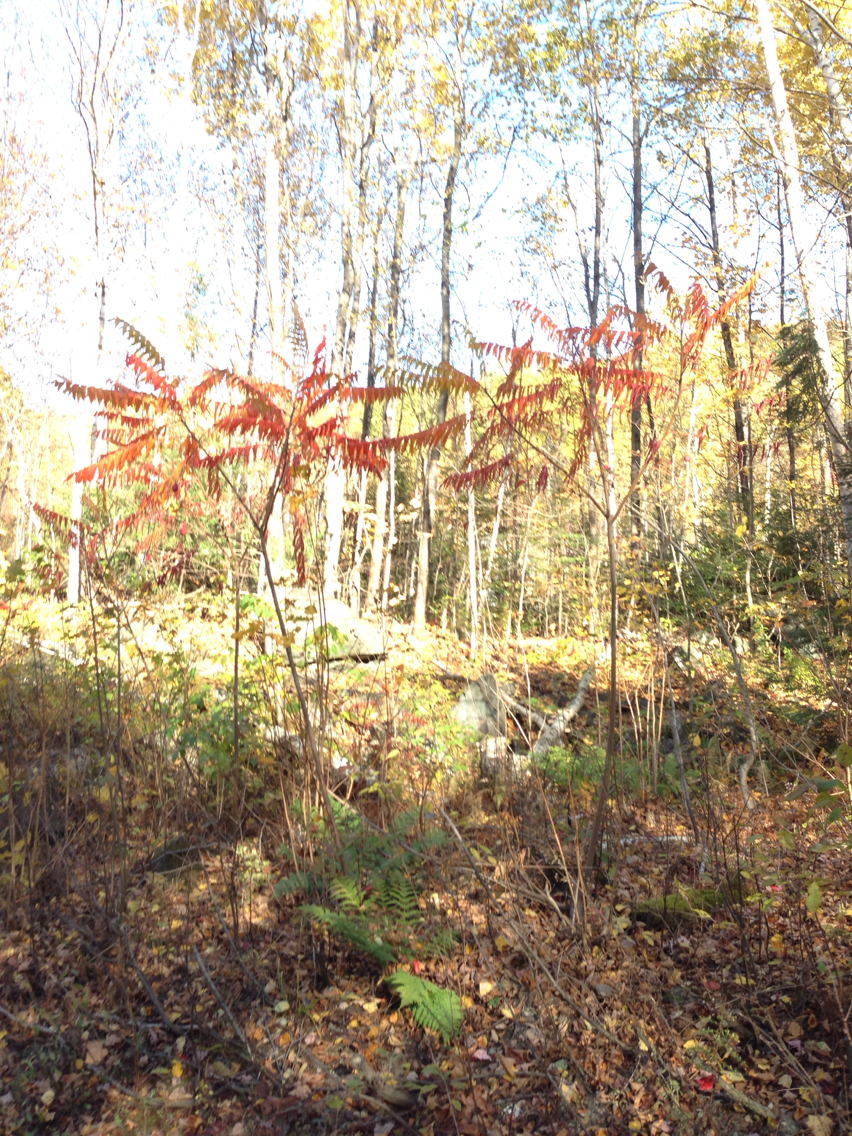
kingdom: Plantae
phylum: Tracheophyta
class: Magnoliopsida
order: Sapindales
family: Anacardiaceae
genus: Rhus
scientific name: Rhus typhina
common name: Staghorn sumac
